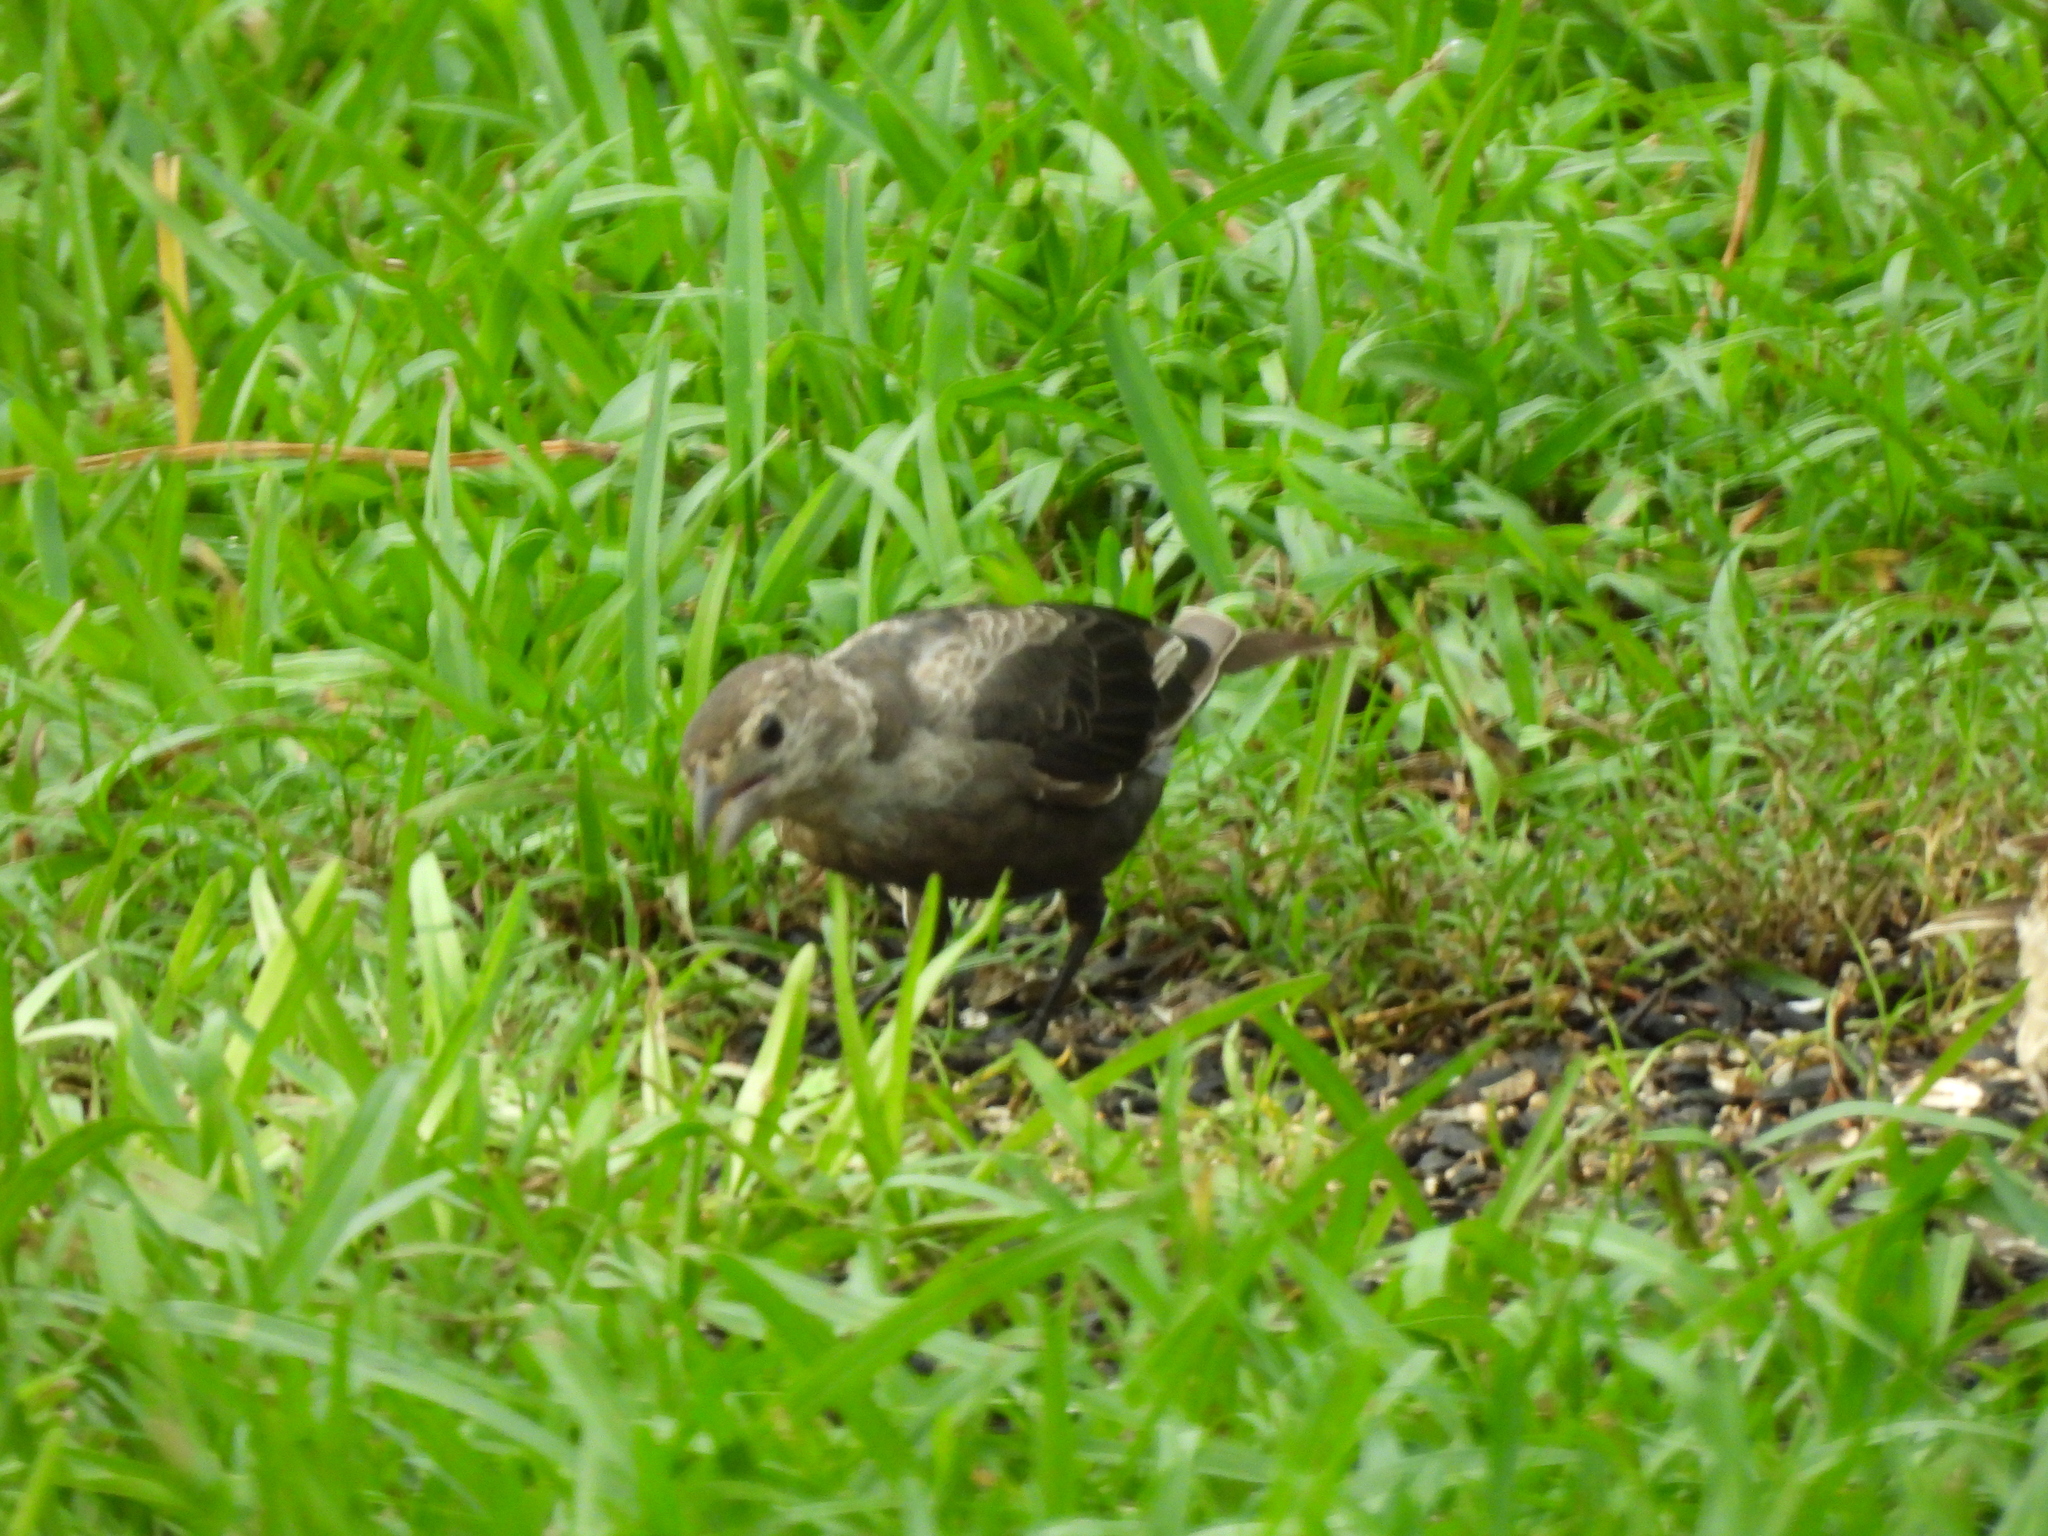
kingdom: Animalia
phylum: Chordata
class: Aves
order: Passeriformes
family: Icteridae
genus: Molothrus
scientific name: Molothrus ater
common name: Brown-headed cowbird
